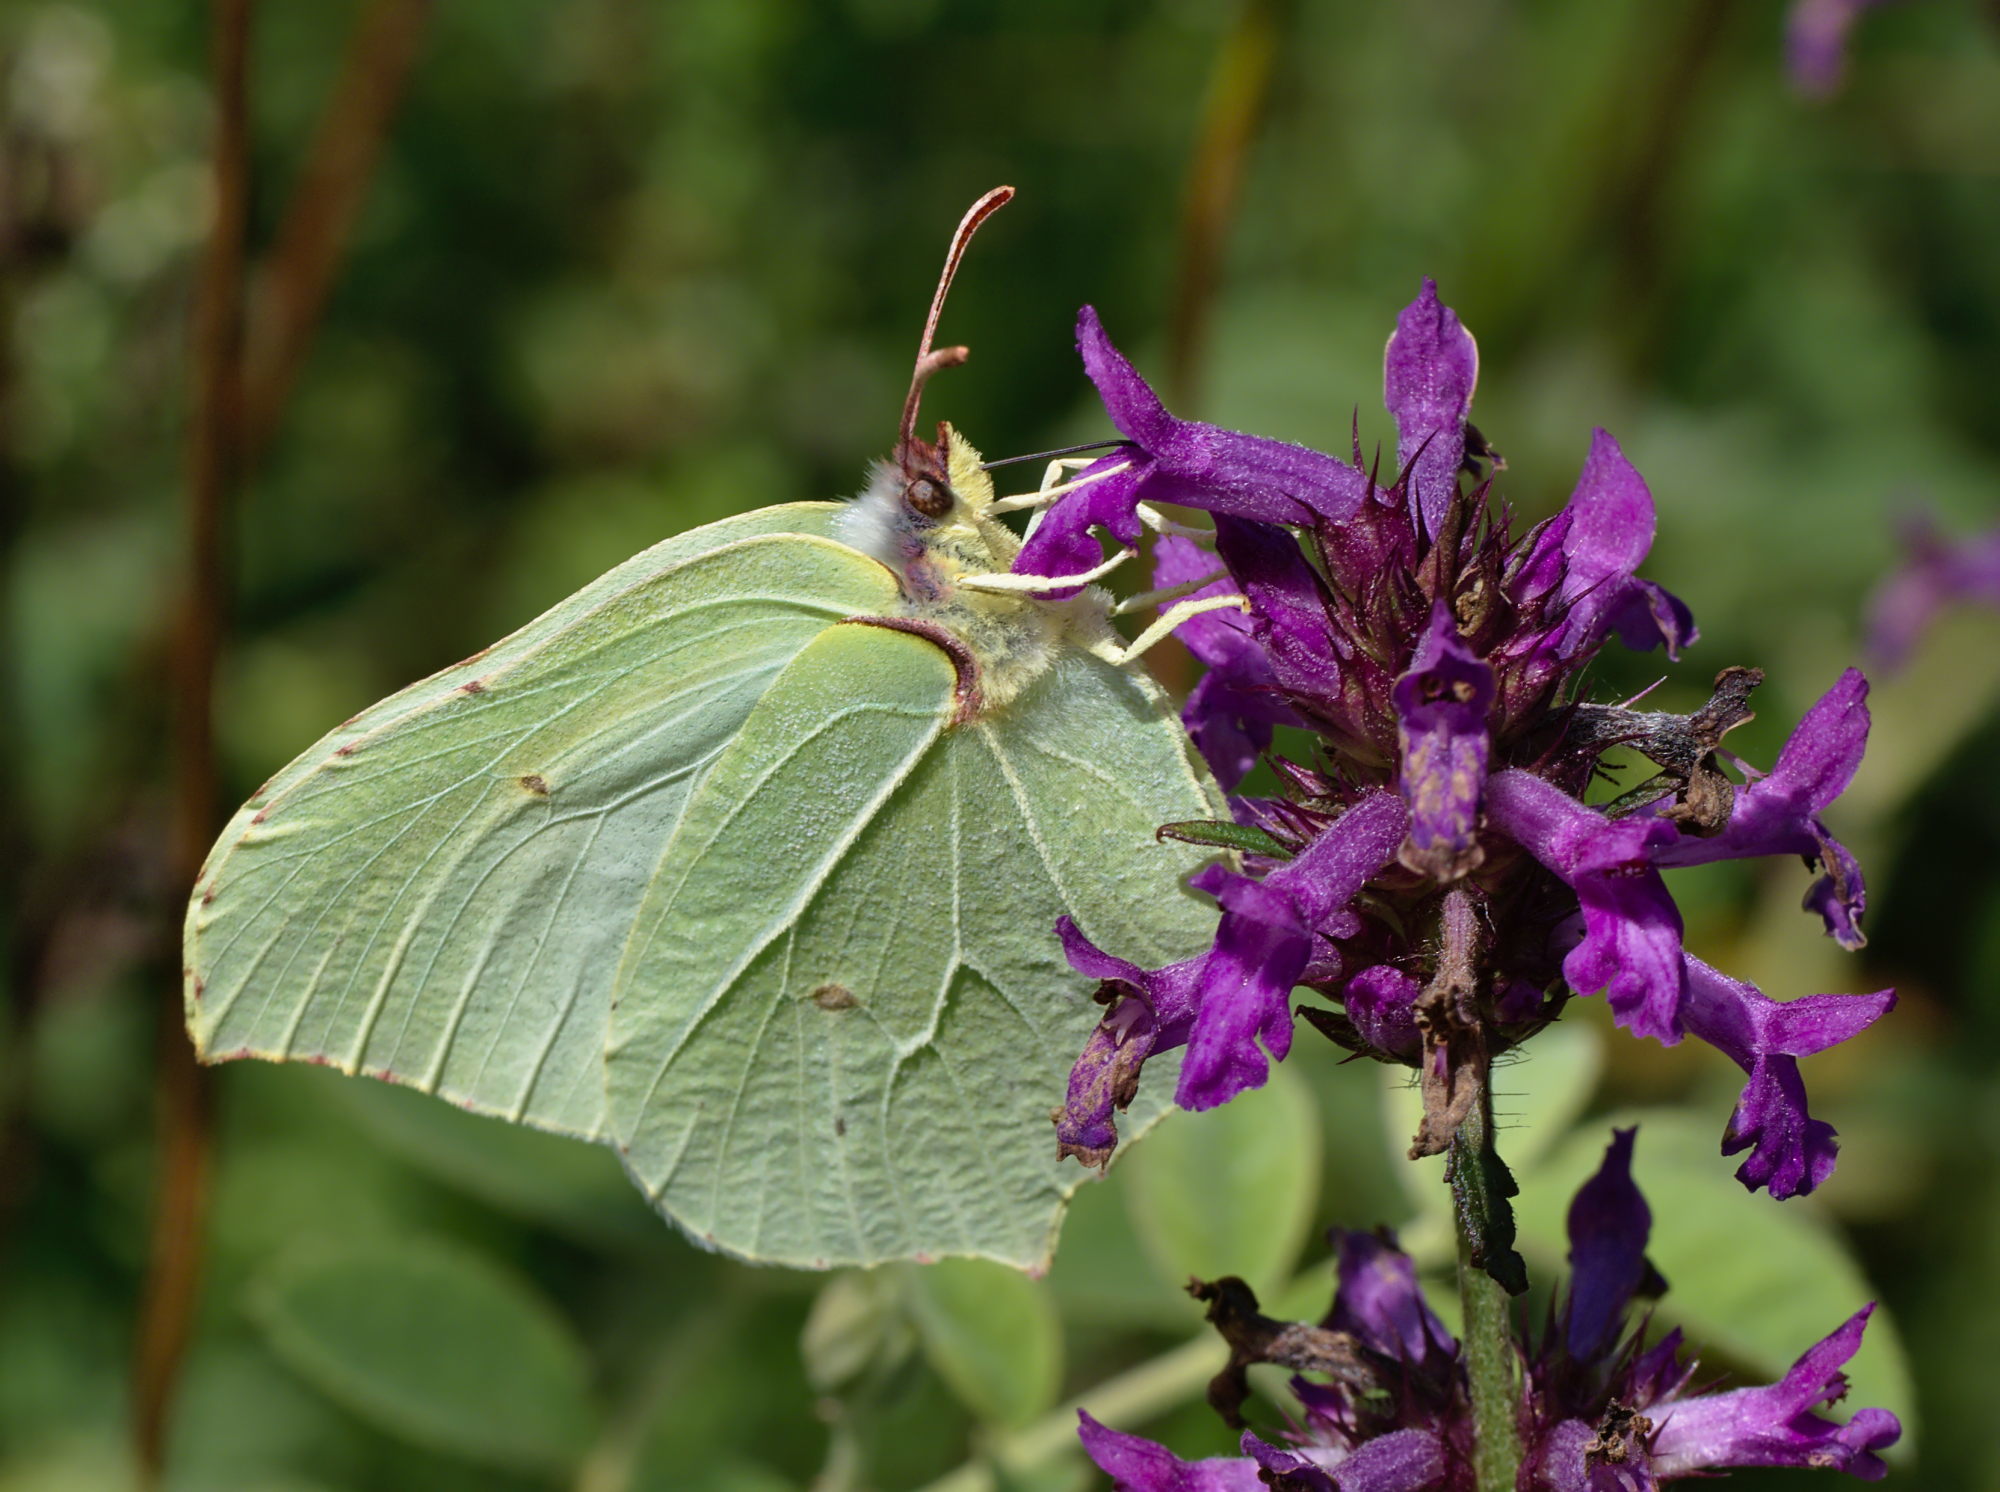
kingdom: Animalia
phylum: Arthropoda
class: Insecta
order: Lepidoptera
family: Pieridae
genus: Gonepteryx
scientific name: Gonepteryx rhamni
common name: Brimstone
